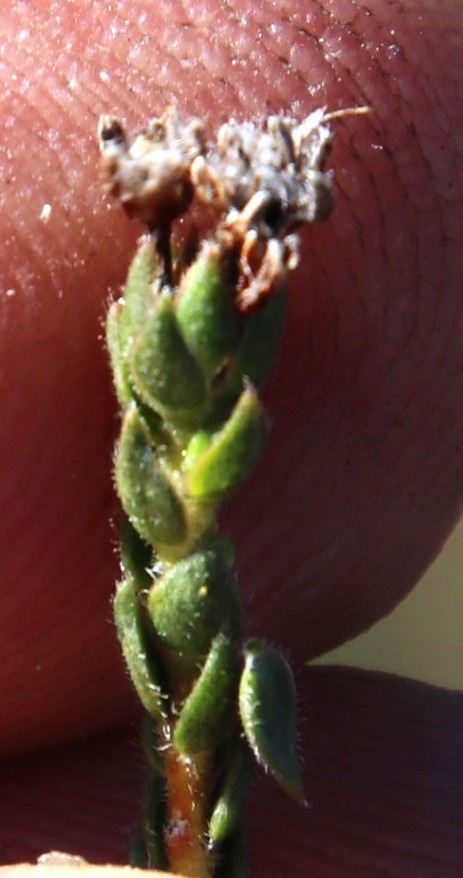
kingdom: Plantae
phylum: Tracheophyta
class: Magnoliopsida
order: Sapindales
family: Rutaceae
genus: Agathosma
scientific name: Agathosma imbricata
